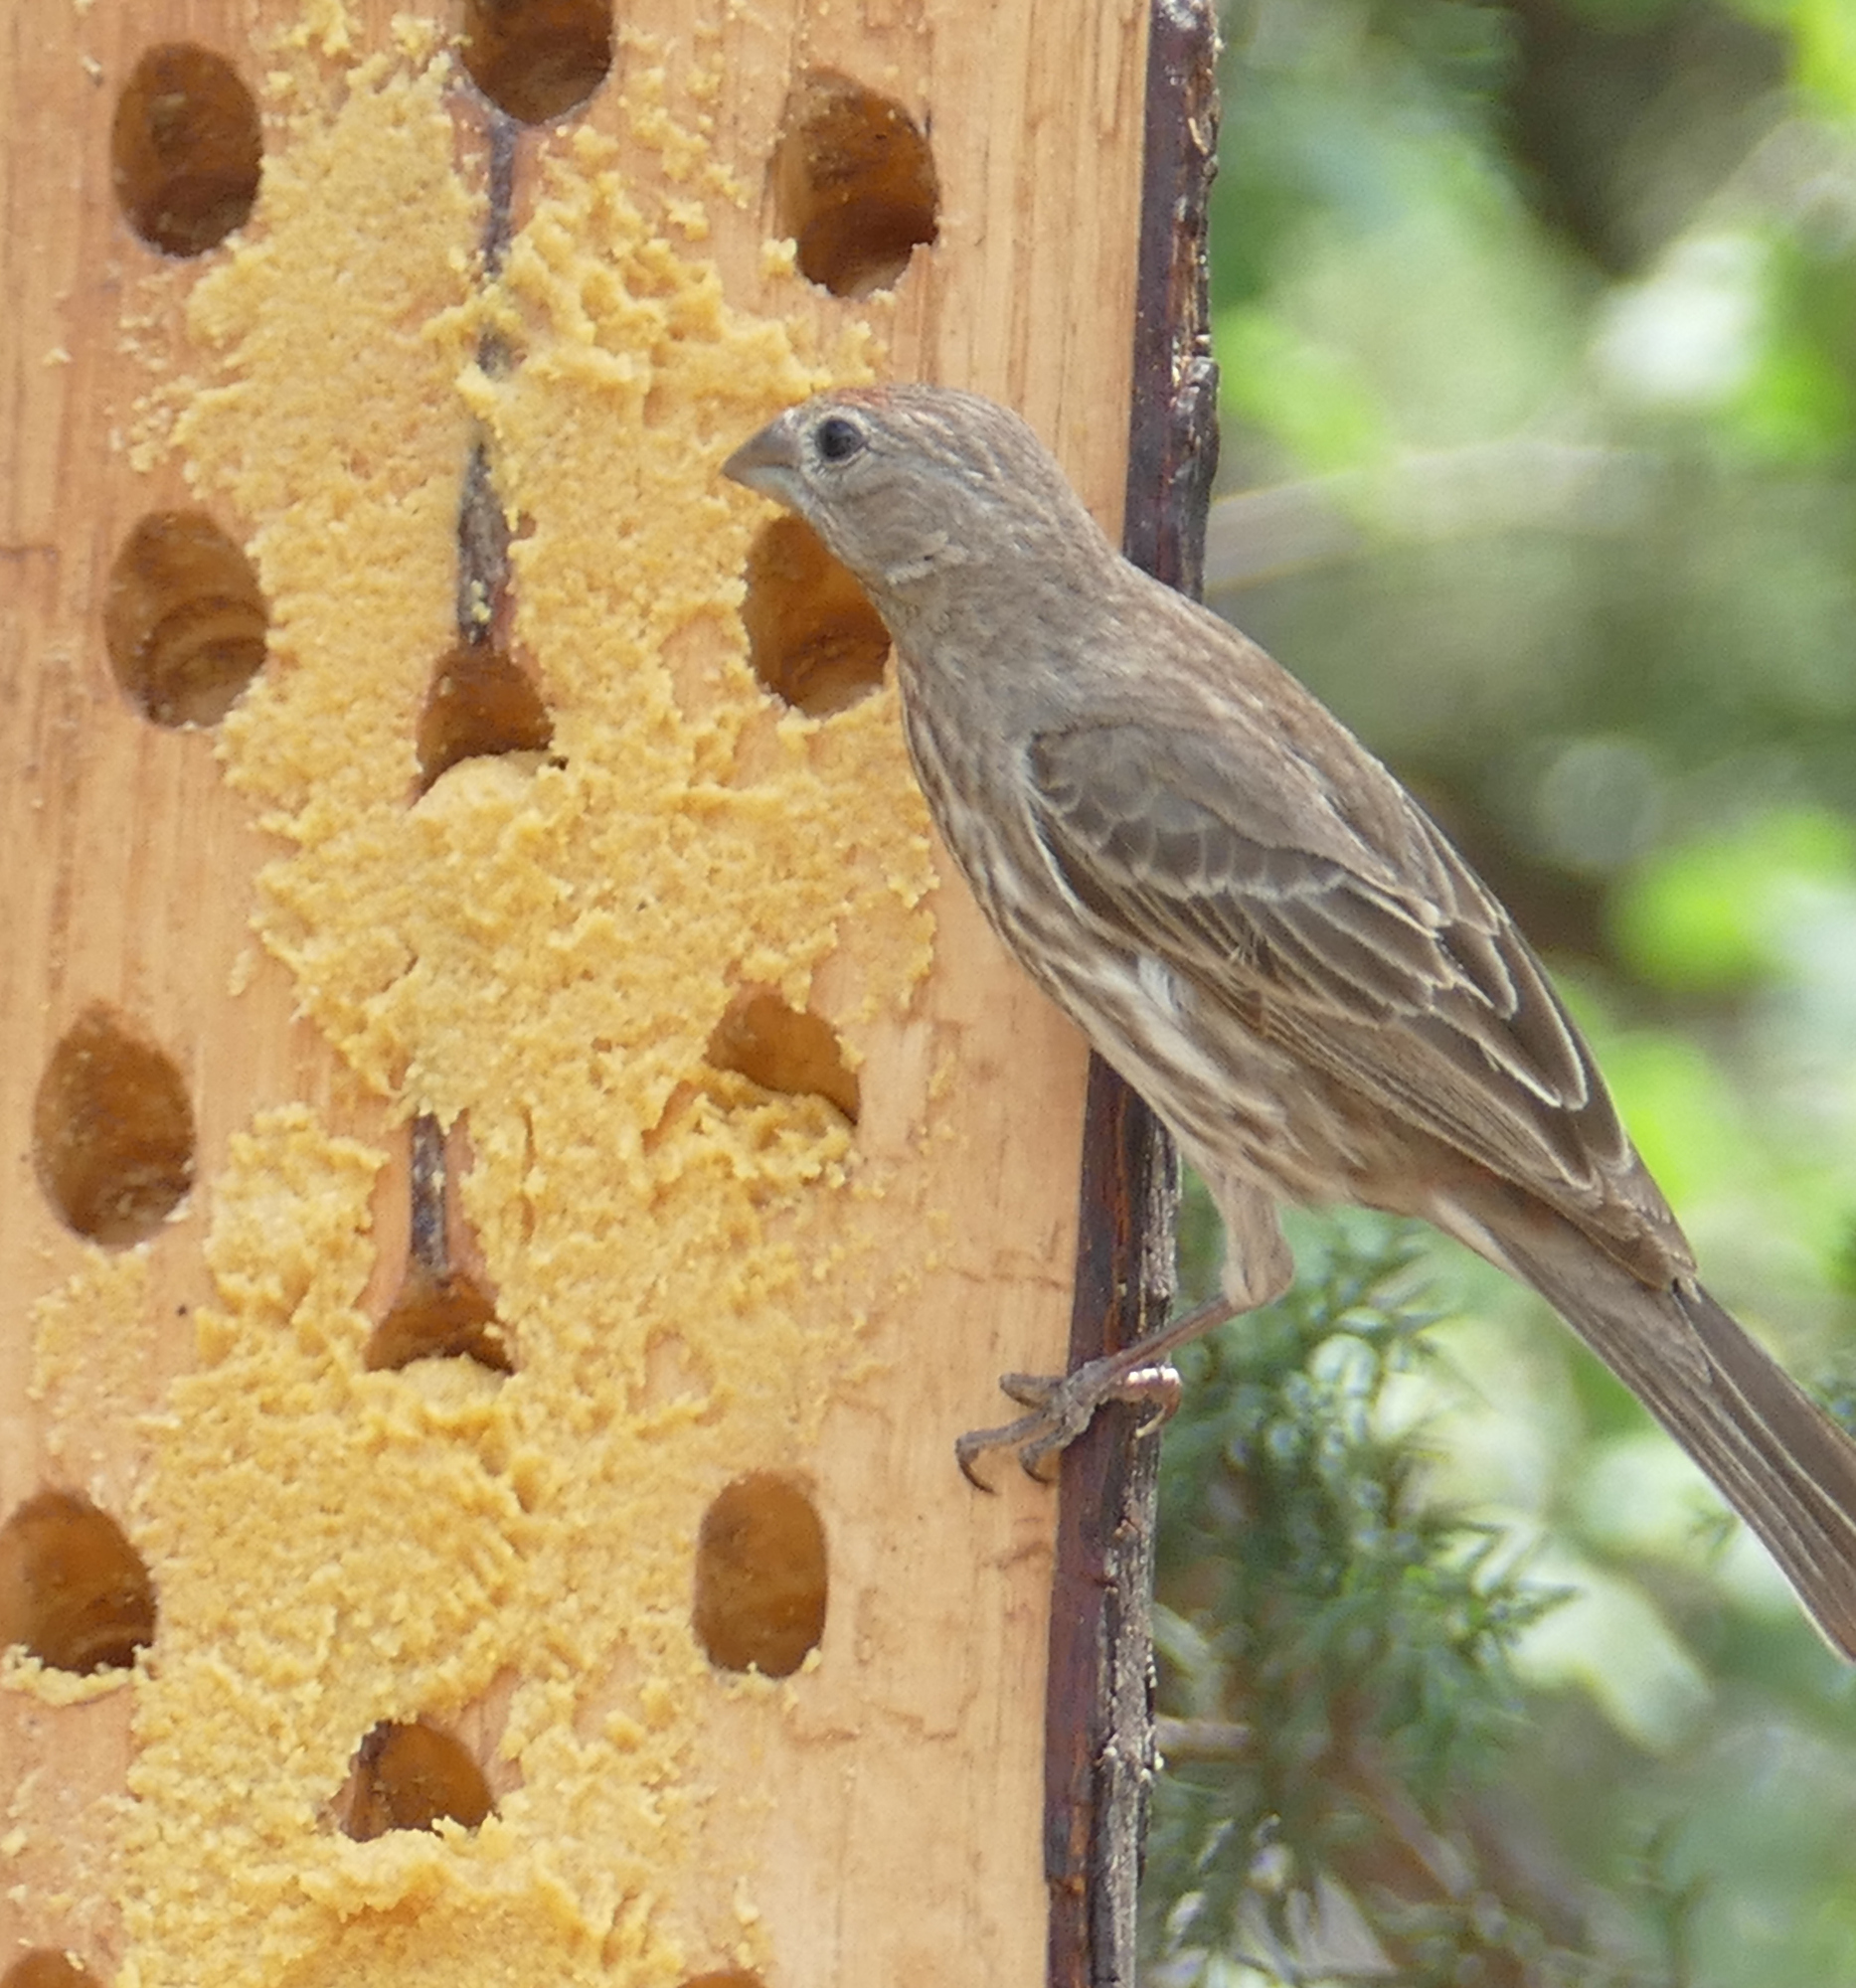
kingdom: Animalia
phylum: Chordata
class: Aves
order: Passeriformes
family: Fringillidae
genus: Haemorhous
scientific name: Haemorhous mexicanus
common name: House finch
